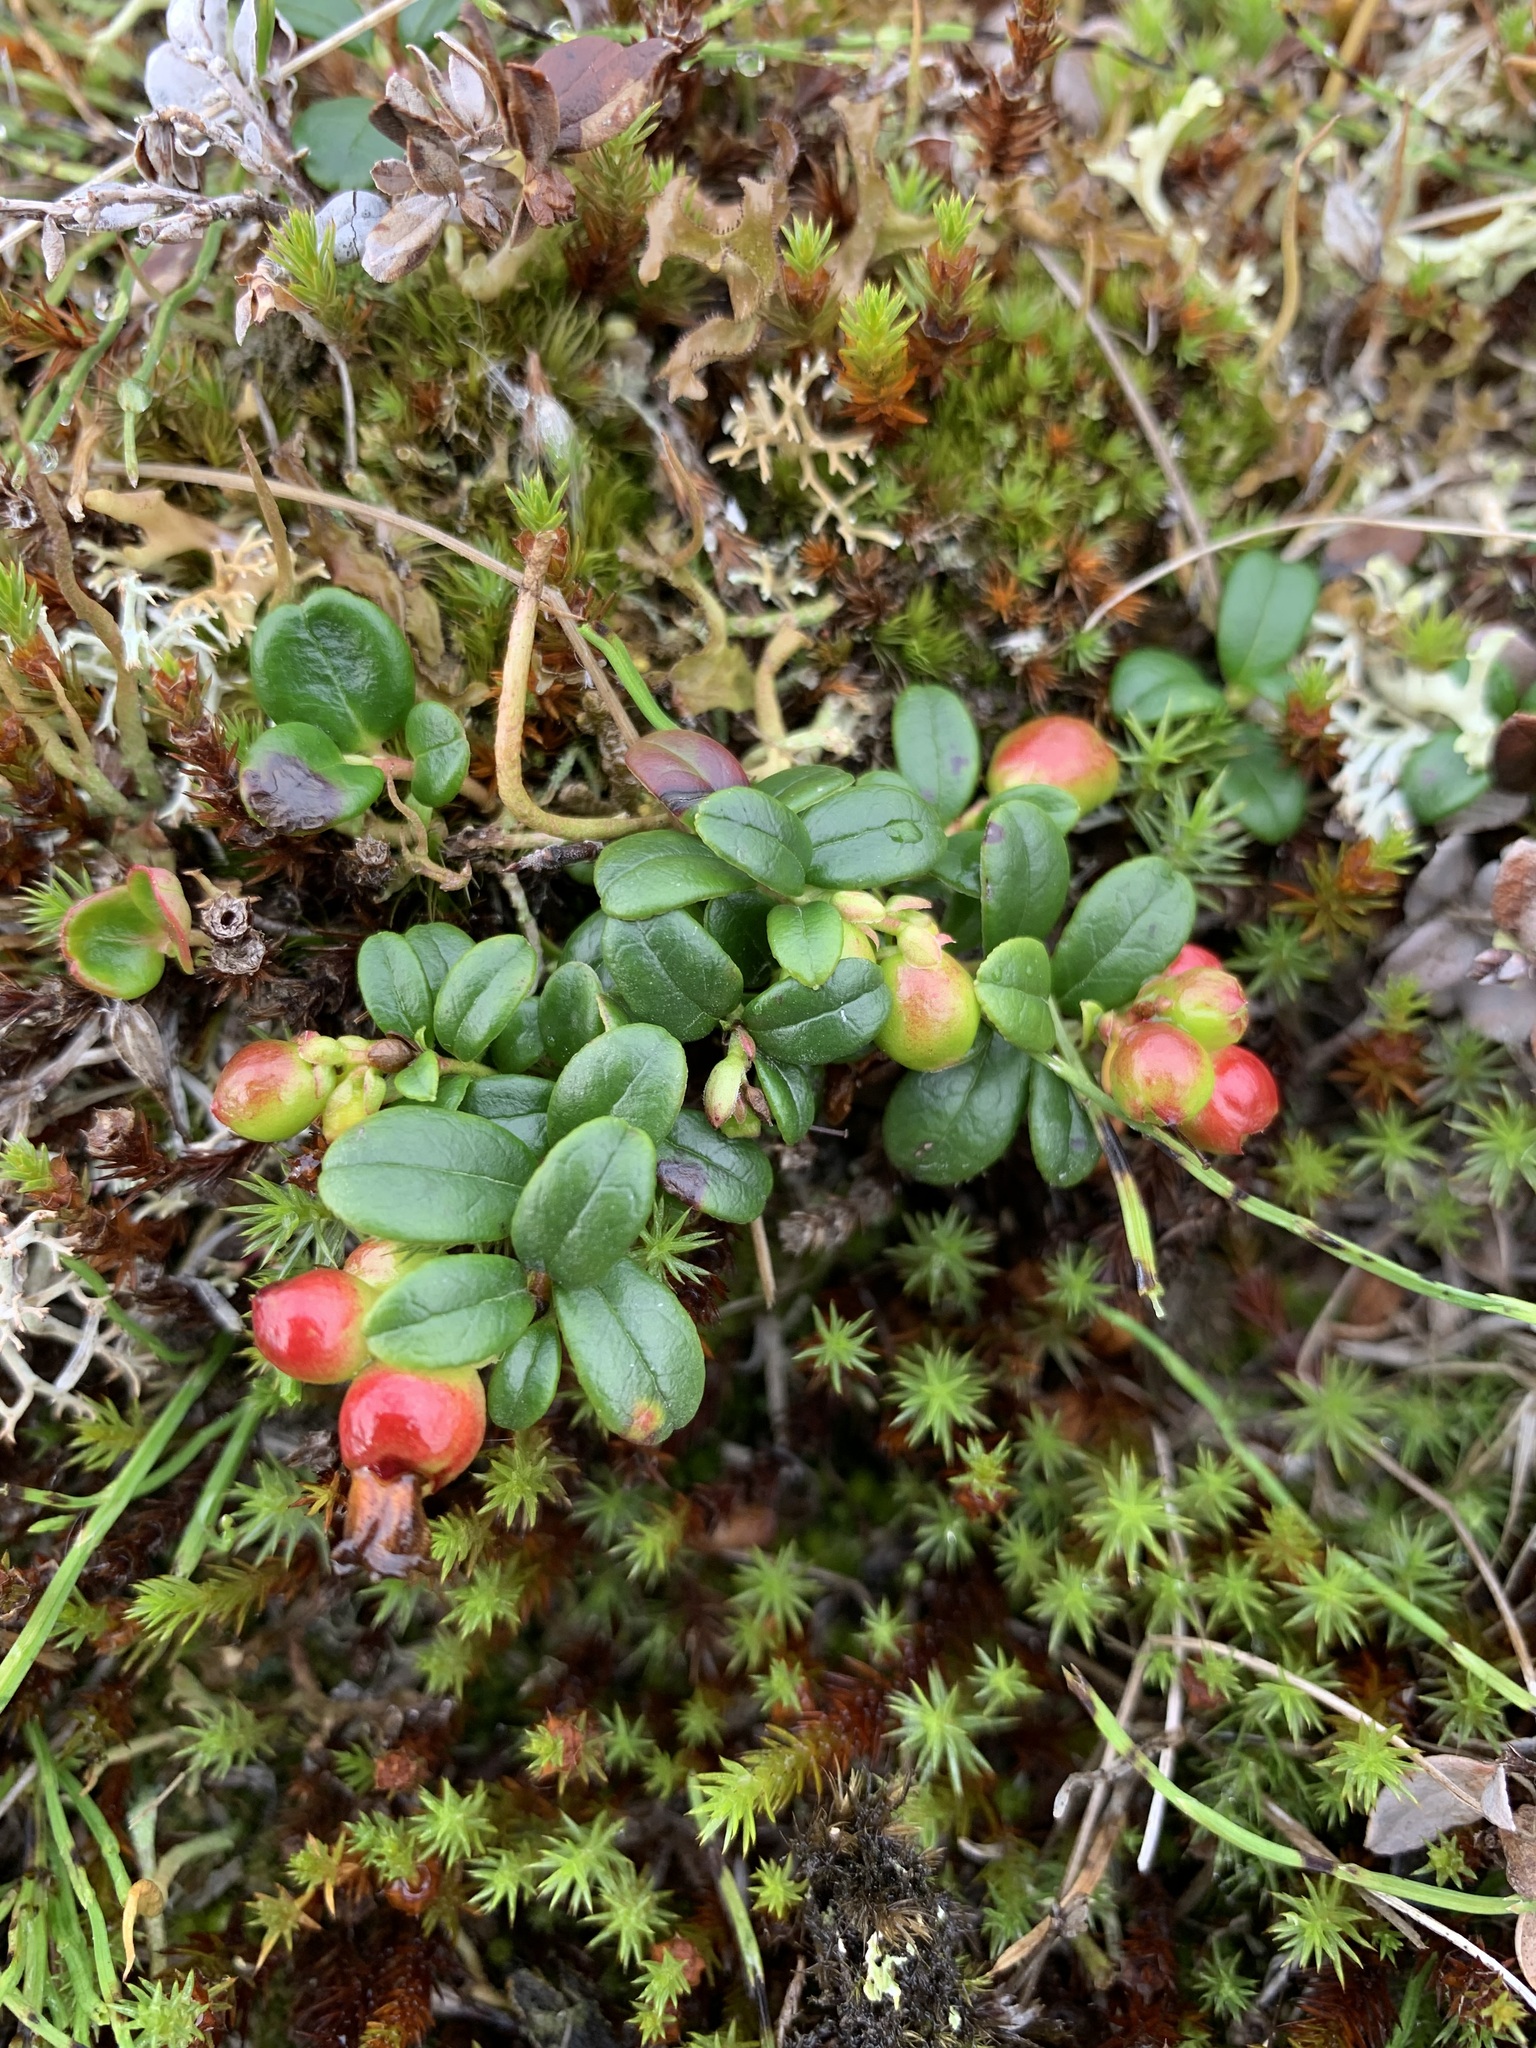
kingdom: Plantae
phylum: Tracheophyta
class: Magnoliopsida
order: Ericales
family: Ericaceae
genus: Vaccinium
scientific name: Vaccinium vitis-idaea
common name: Cowberry
